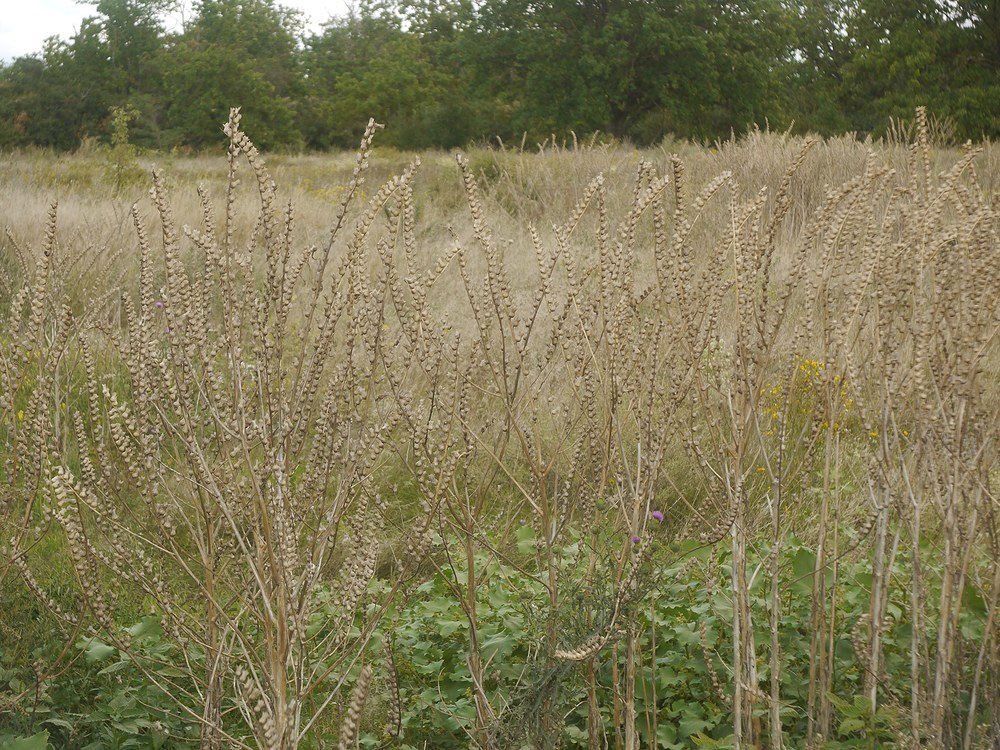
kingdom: Plantae
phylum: Tracheophyta
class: Magnoliopsida
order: Solanales
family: Solanaceae
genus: Hyoscyamus
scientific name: Hyoscyamus niger
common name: Henbane
